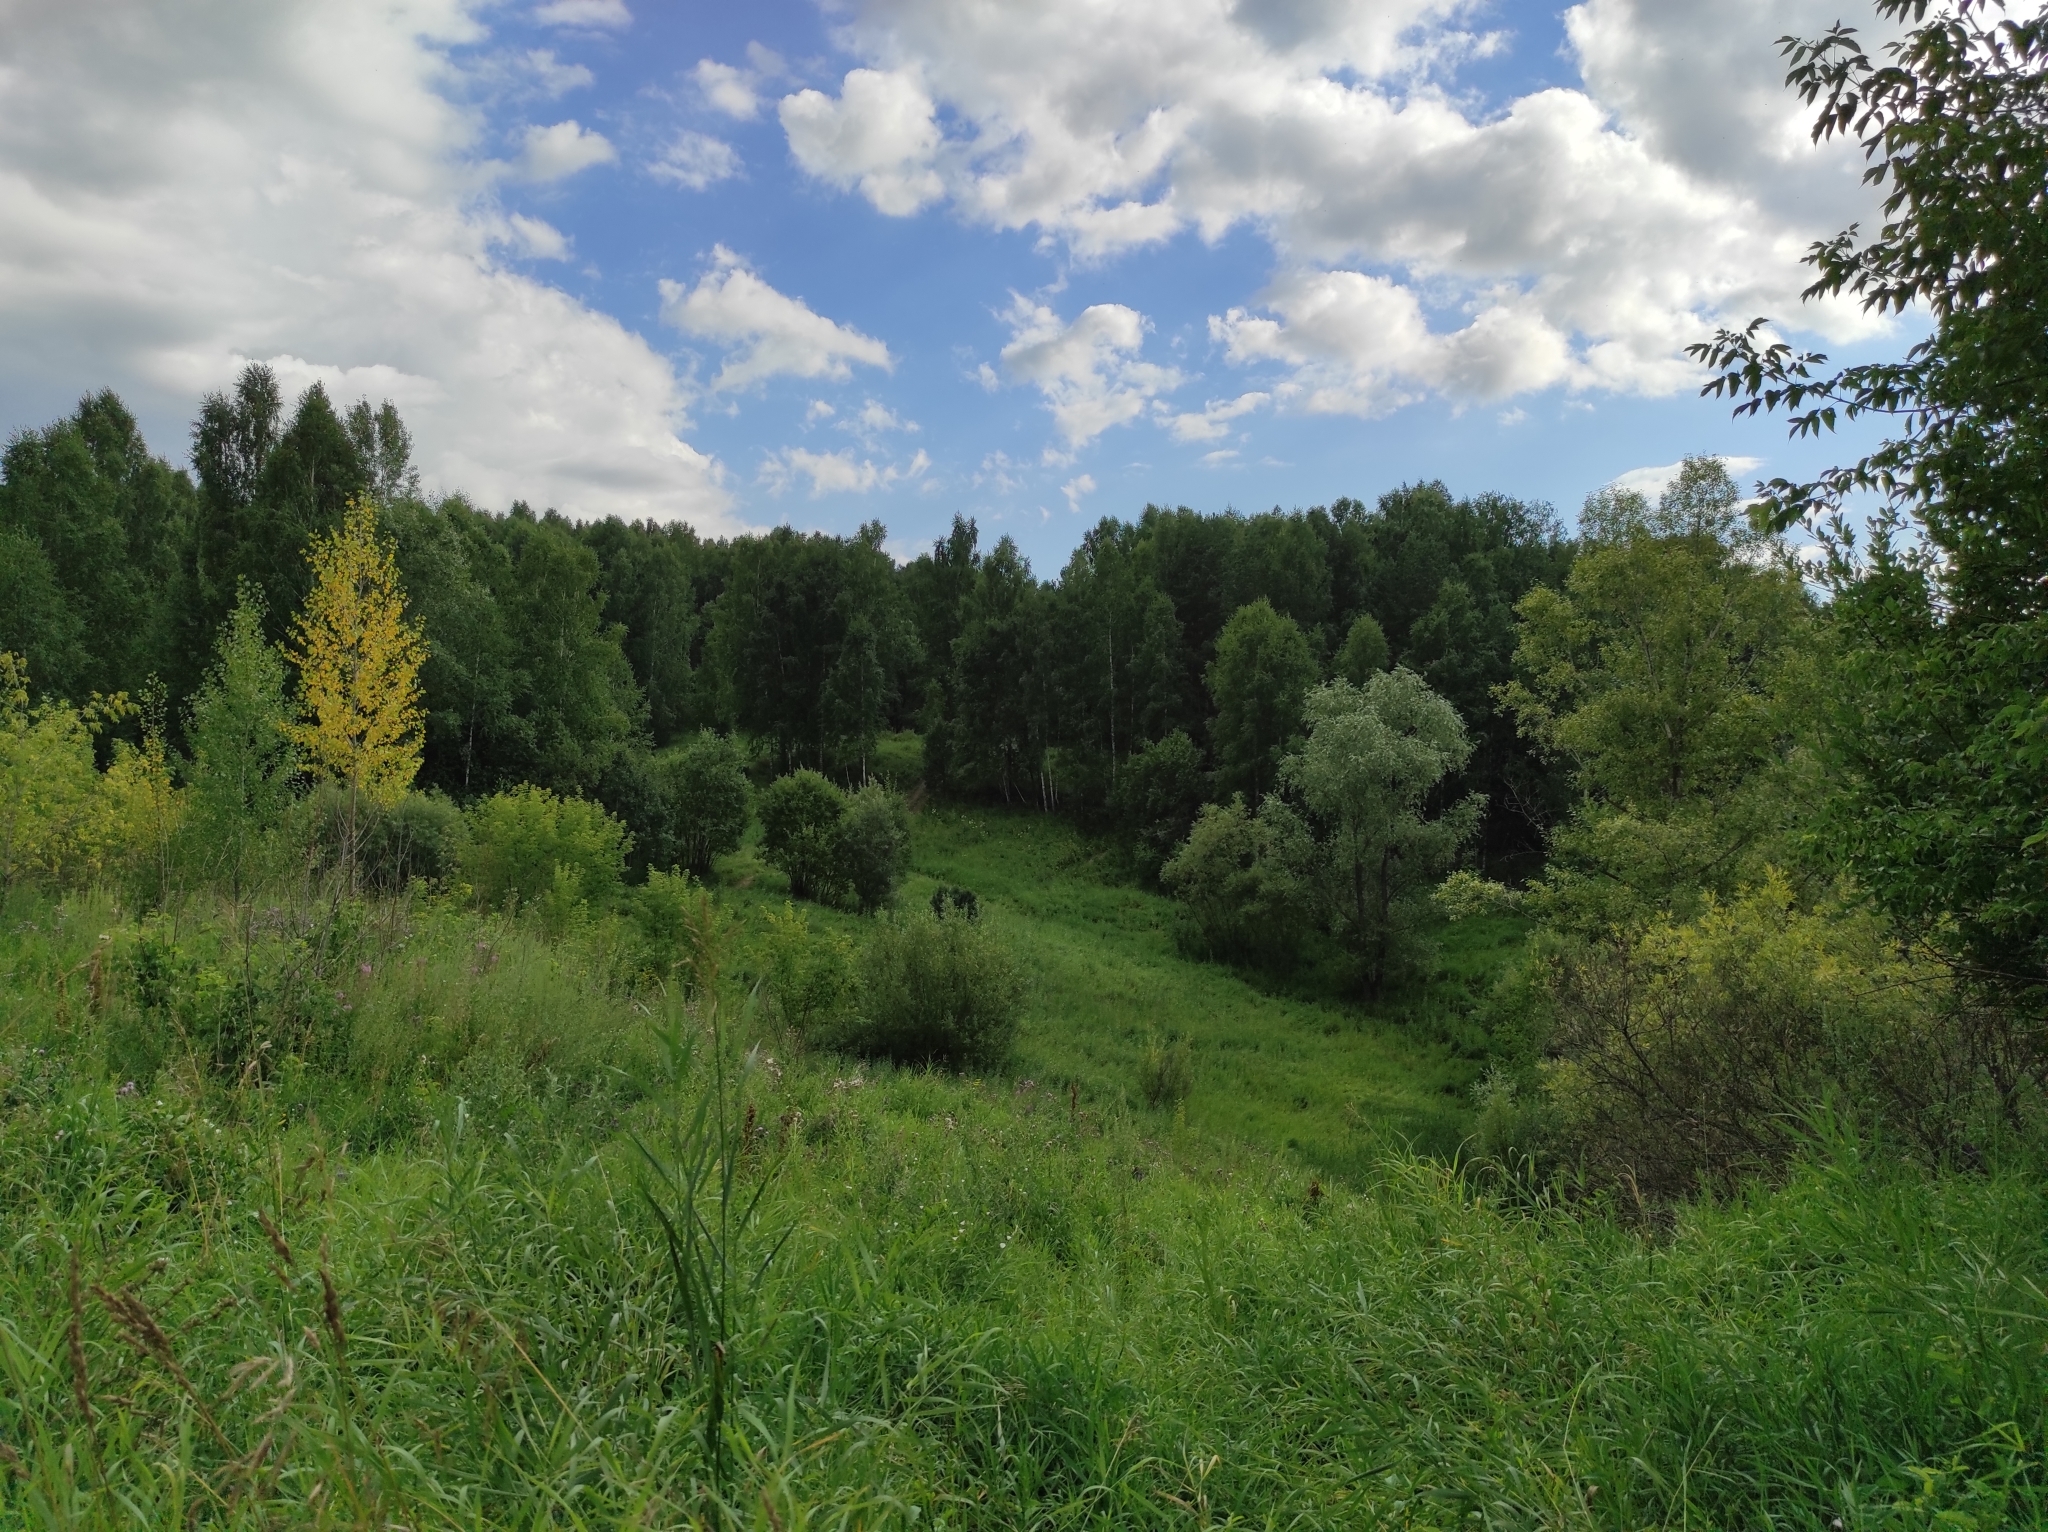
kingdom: Plantae
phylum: Tracheophyta
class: Magnoliopsida
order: Fagales
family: Betulaceae
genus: Betula
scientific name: Betula pendula
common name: Silver birch
